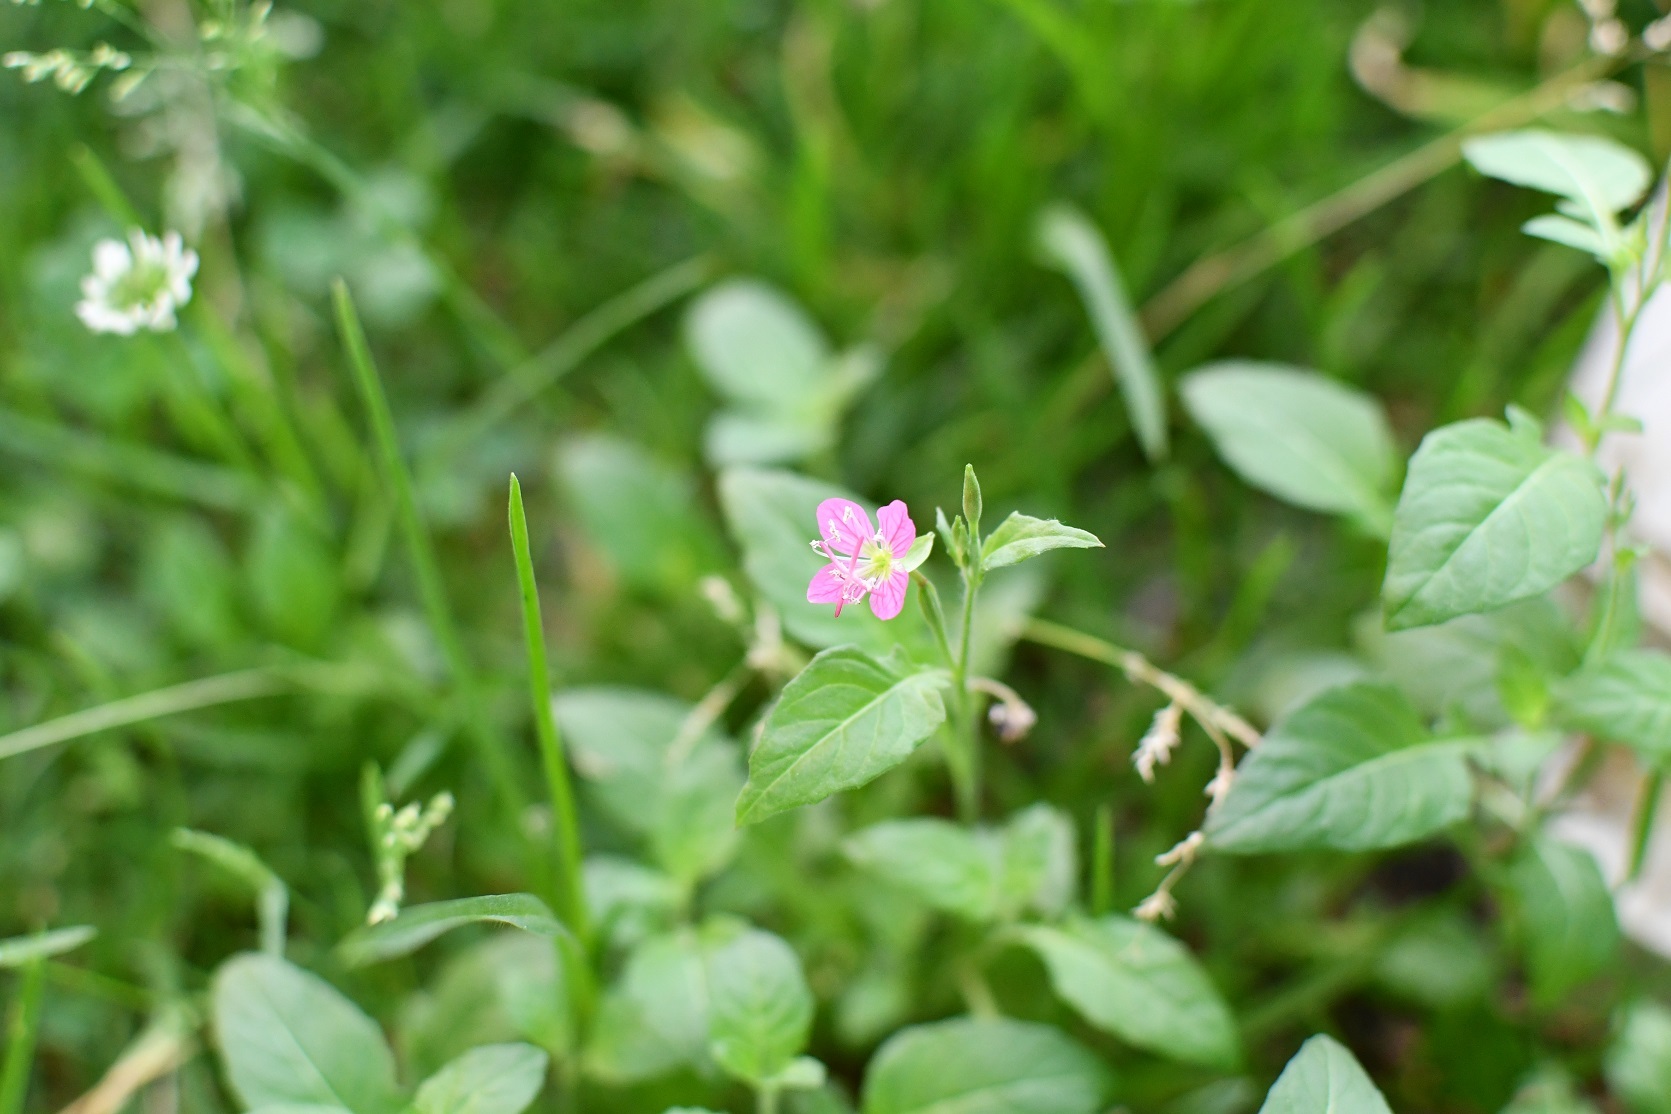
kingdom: Plantae
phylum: Tracheophyta
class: Magnoliopsida
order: Myrtales
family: Onagraceae
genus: Oenothera
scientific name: Oenothera rosea
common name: Rosy evening-primrose
